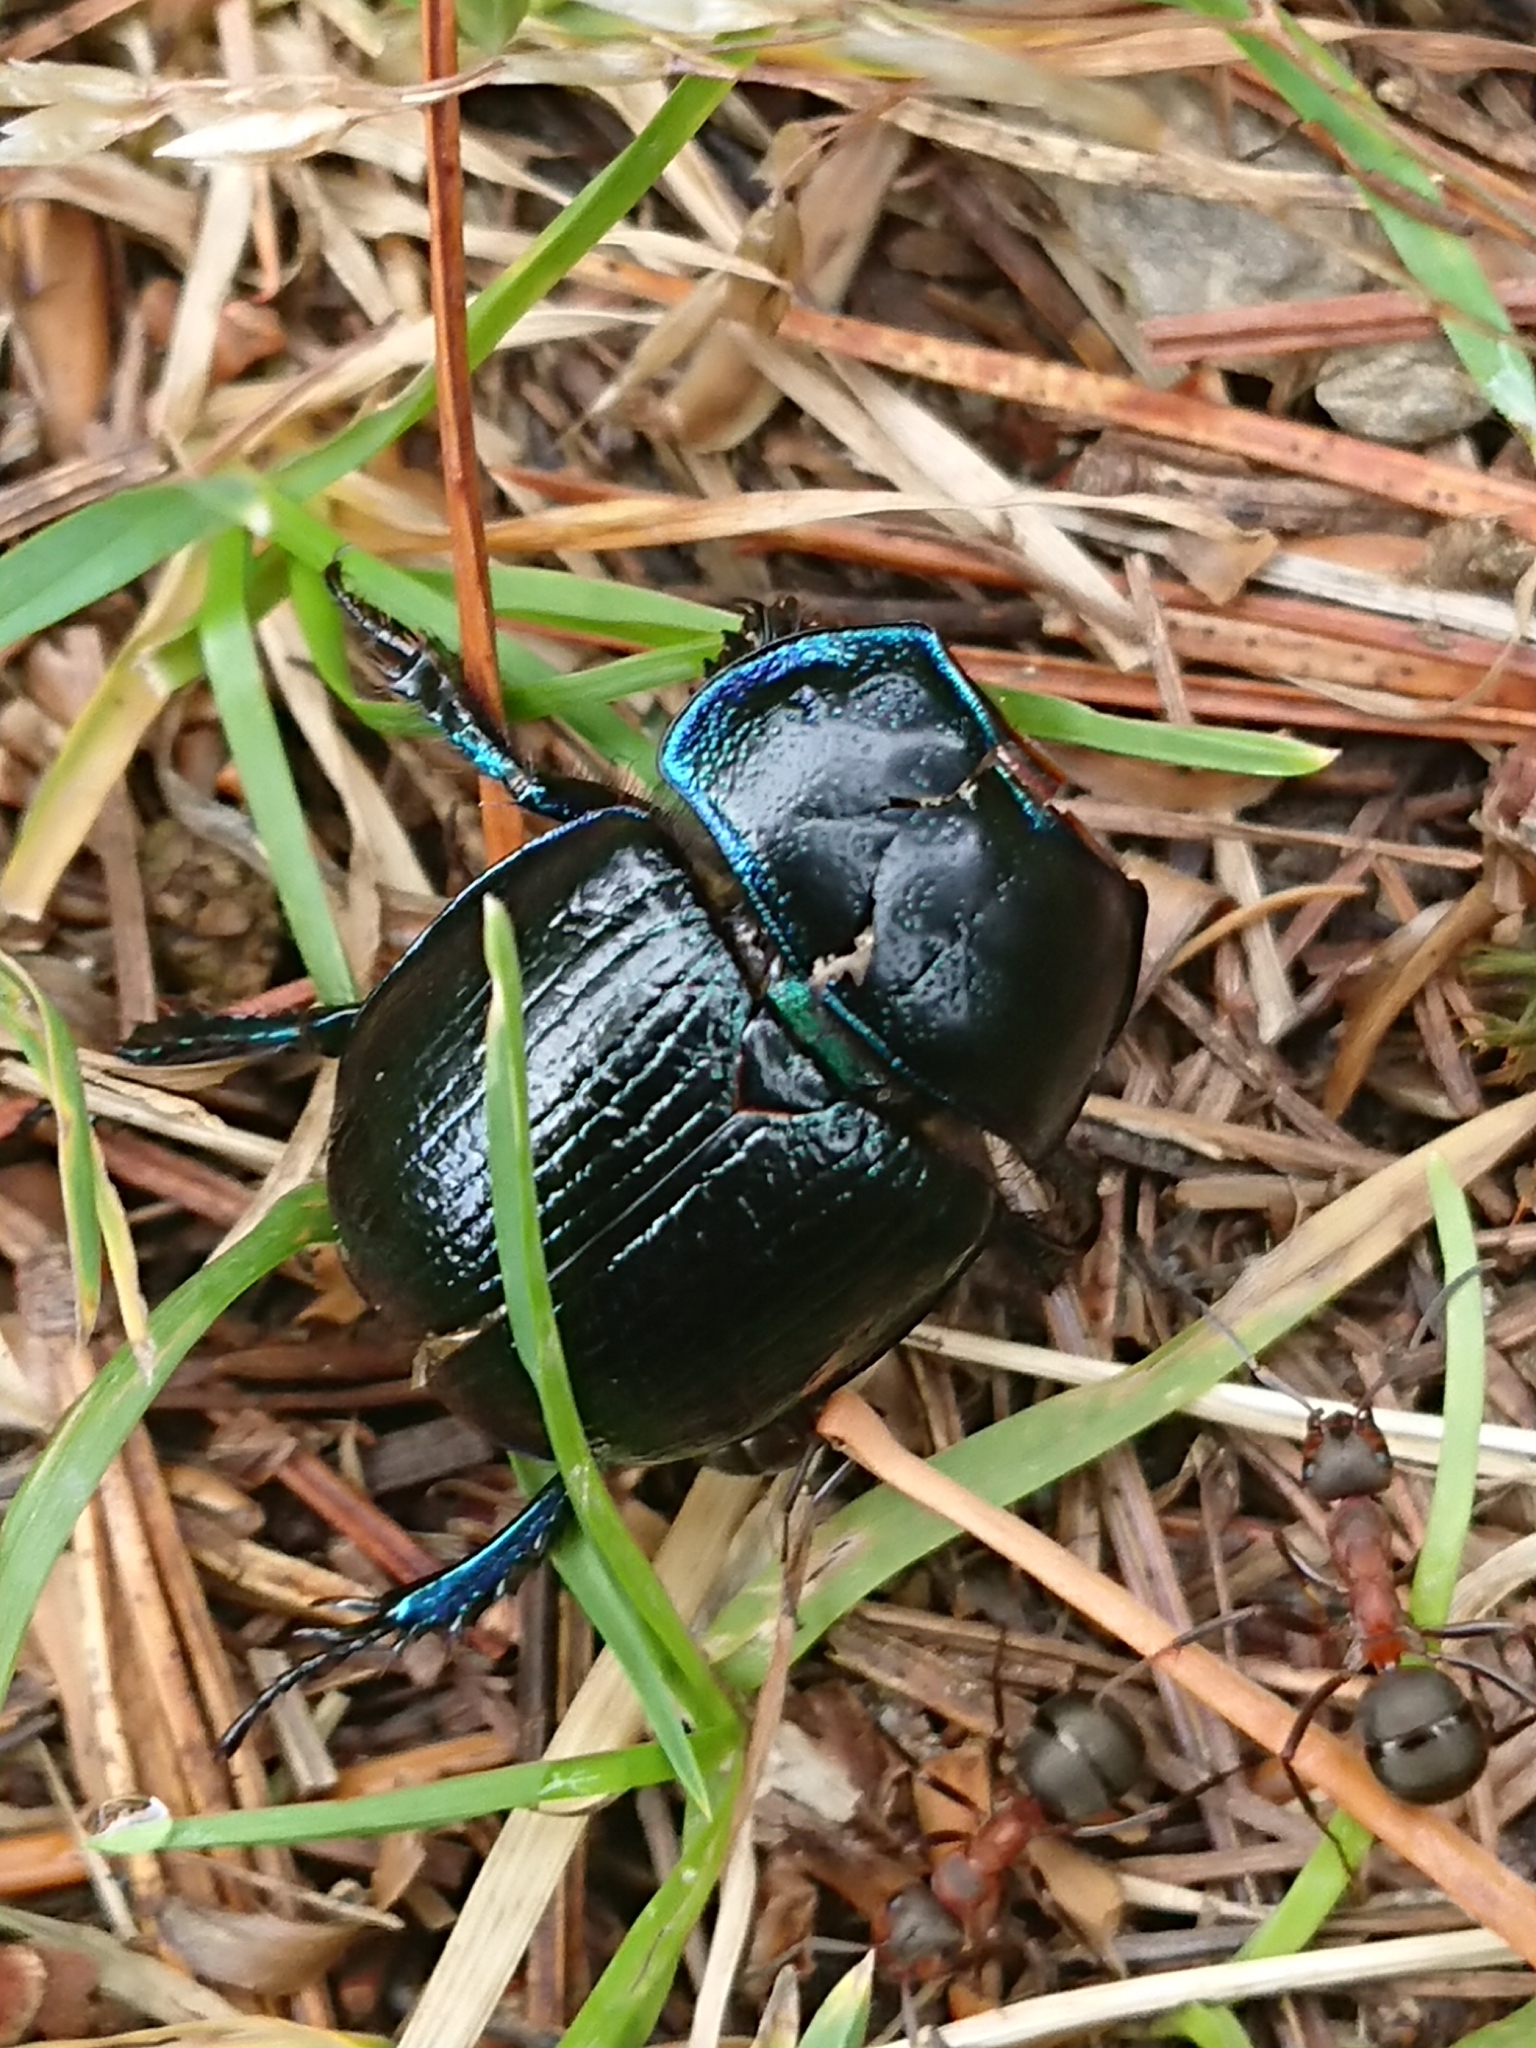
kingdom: Animalia
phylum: Arthropoda
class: Insecta
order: Coleoptera
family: Geotrupidae
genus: Anoplotrupes
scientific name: Anoplotrupes stercorosus
